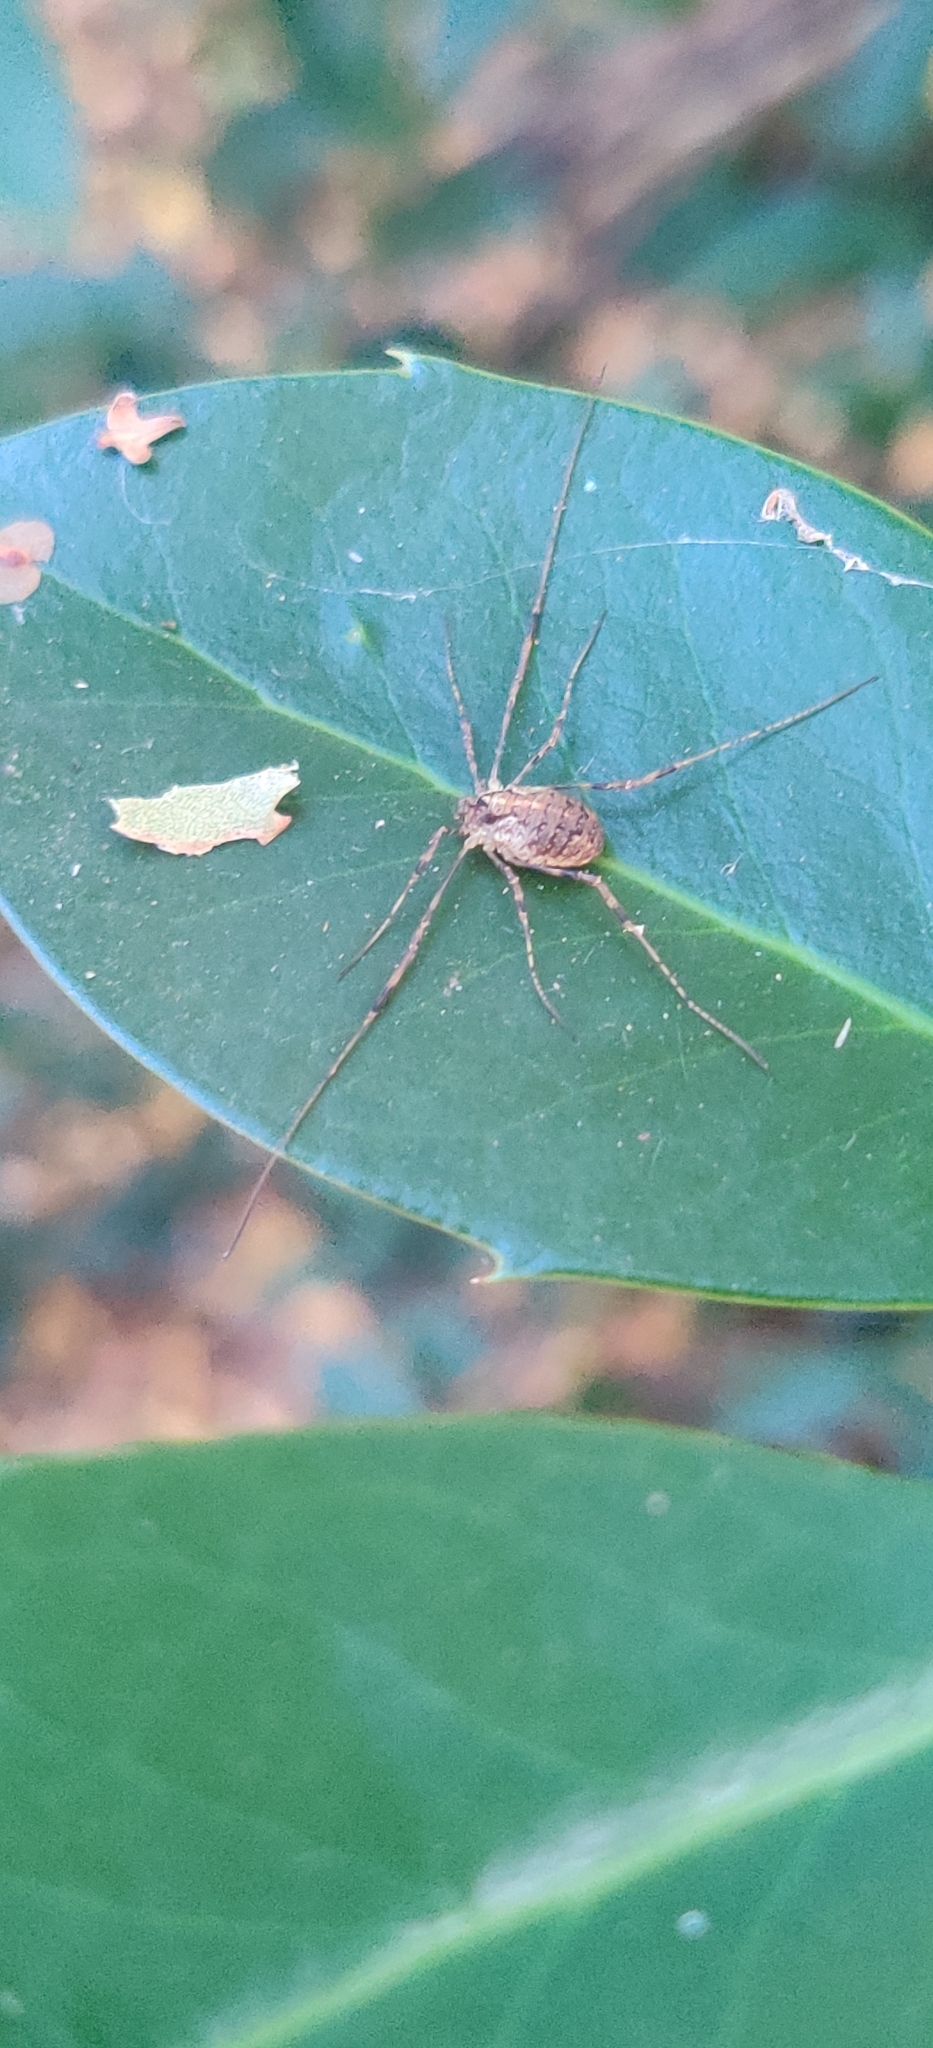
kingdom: Animalia
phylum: Arthropoda
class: Arachnida
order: Opiliones
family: Phalangiidae
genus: Paroligolophus
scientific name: Paroligolophus agrestis
